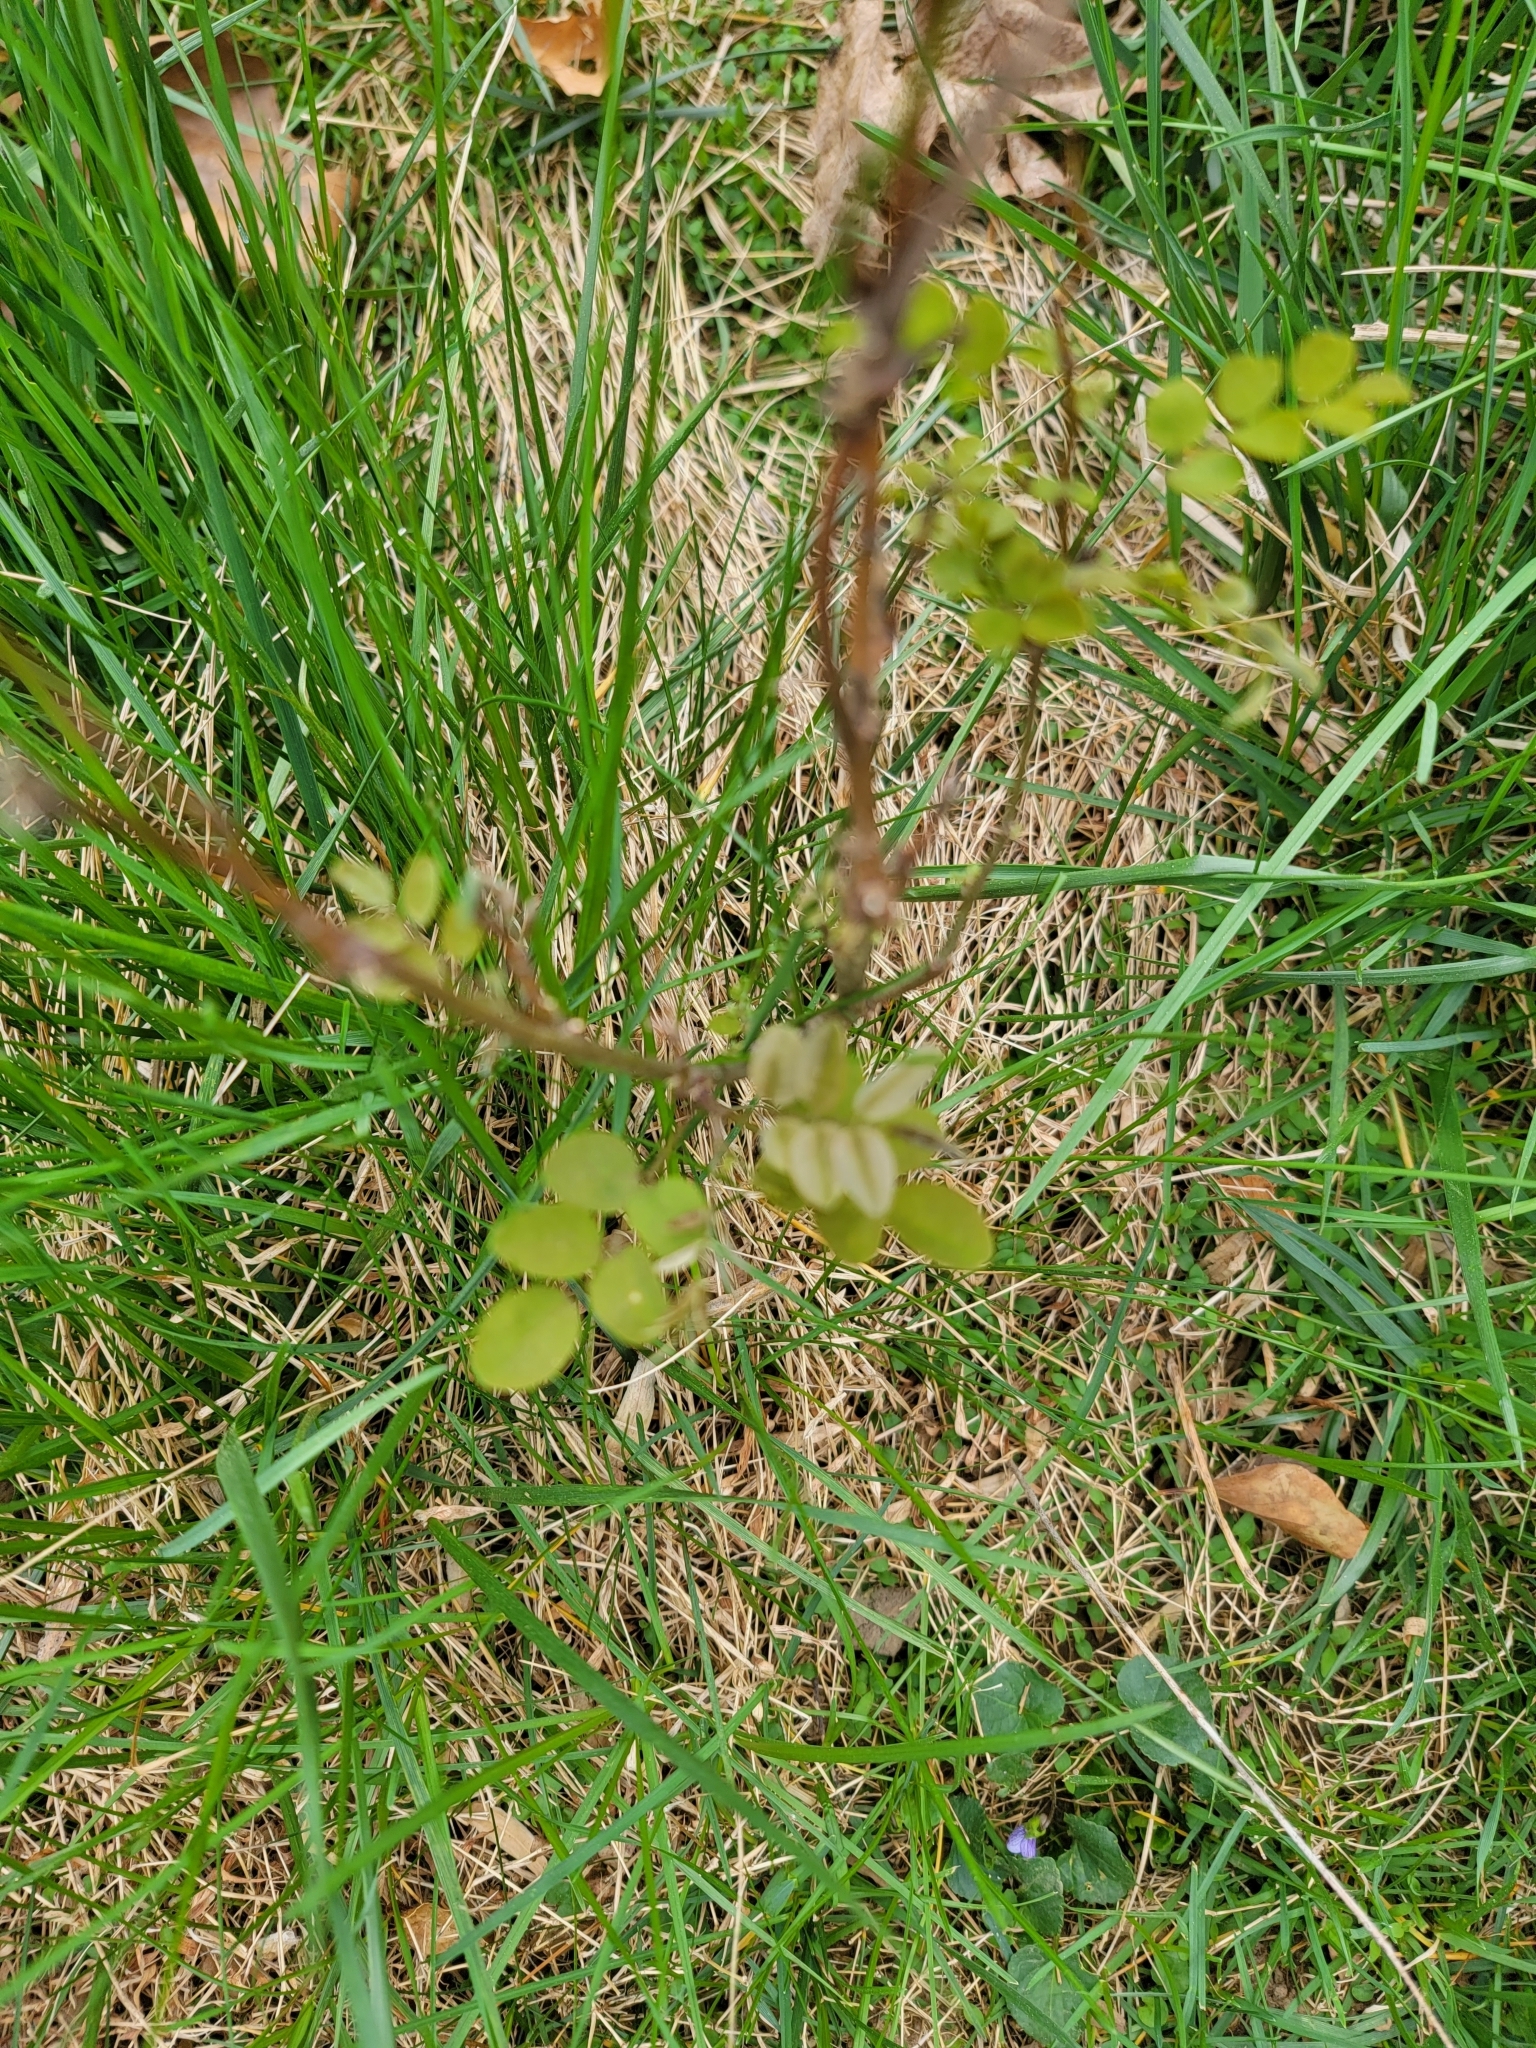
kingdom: Plantae
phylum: Tracheophyta
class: Magnoliopsida
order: Fabales
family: Fabaceae
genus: Robinia
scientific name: Robinia pseudoacacia
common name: Black locust
